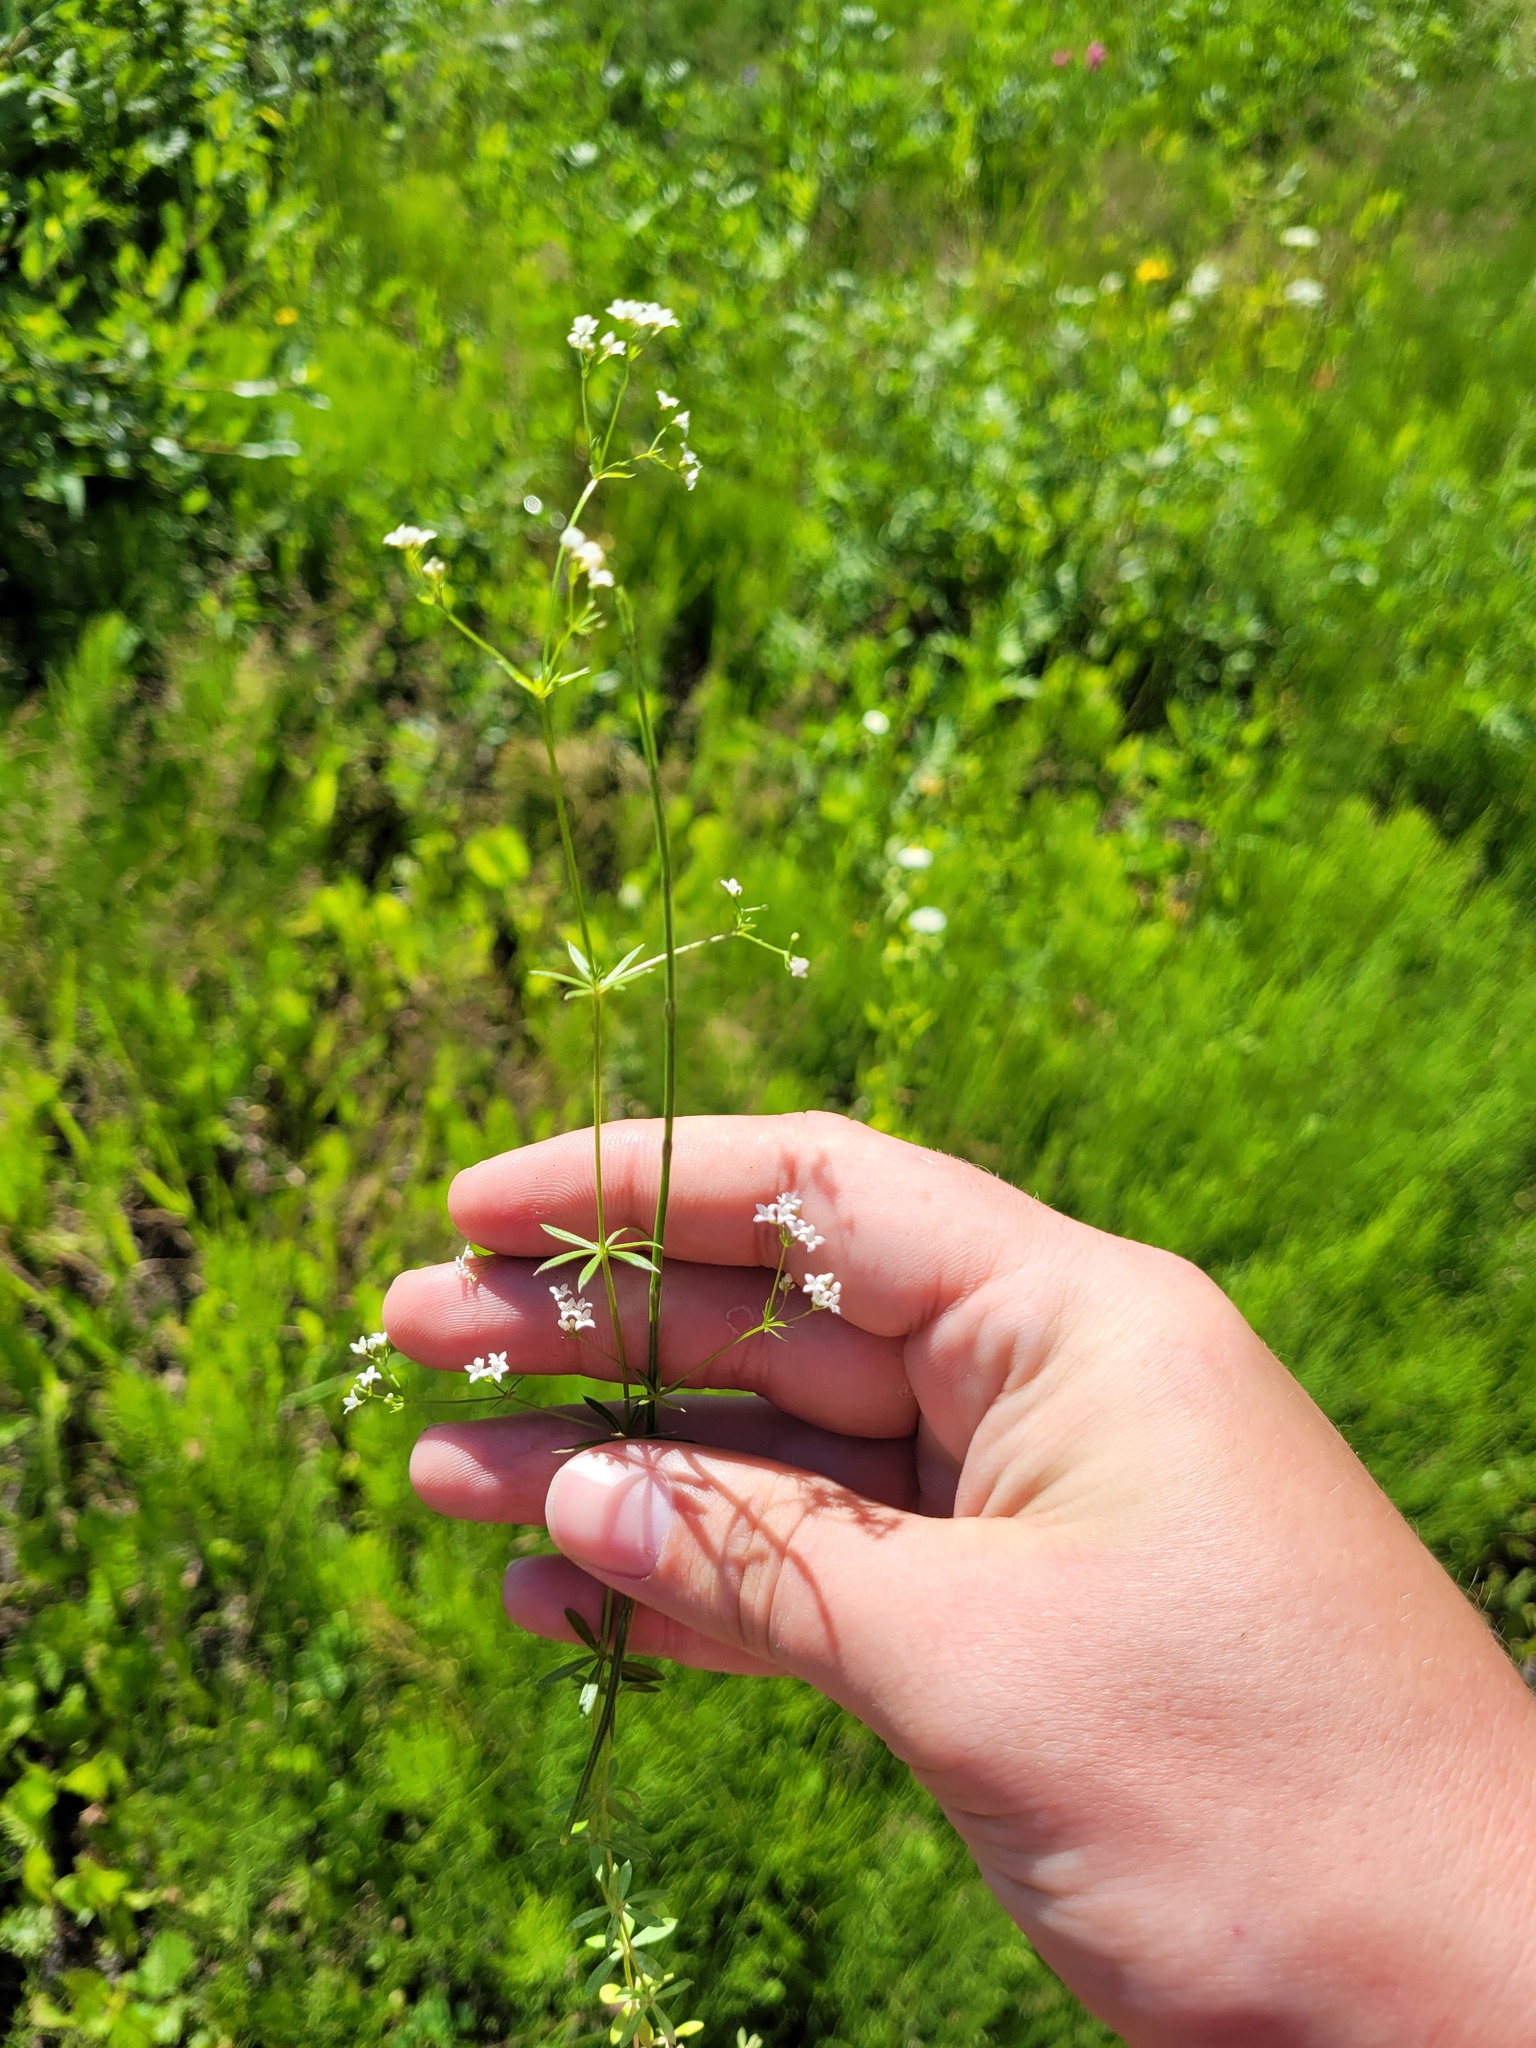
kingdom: Plantae
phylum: Tracheophyta
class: Magnoliopsida
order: Gentianales
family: Rubiaceae
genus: Galium
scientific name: Galium uliginosum
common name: Fen bedstraw
